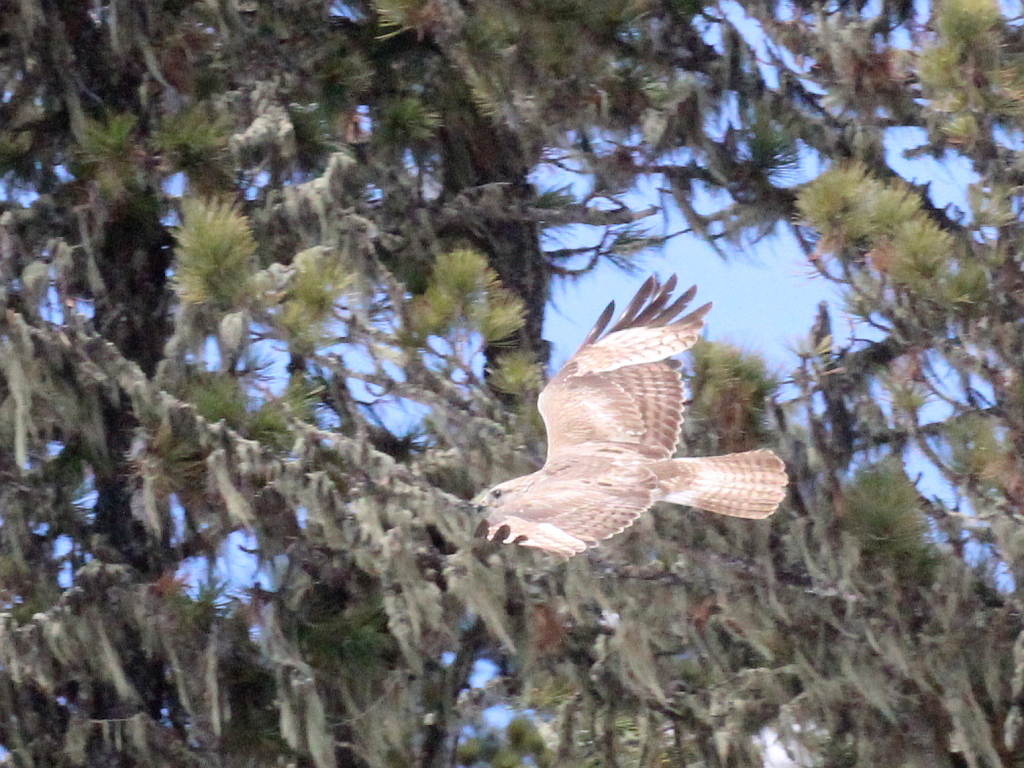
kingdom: Animalia
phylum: Chordata
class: Aves
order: Accipitriformes
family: Accipitridae
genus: Buteo
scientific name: Buteo japonicus
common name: Eastern buzzard
